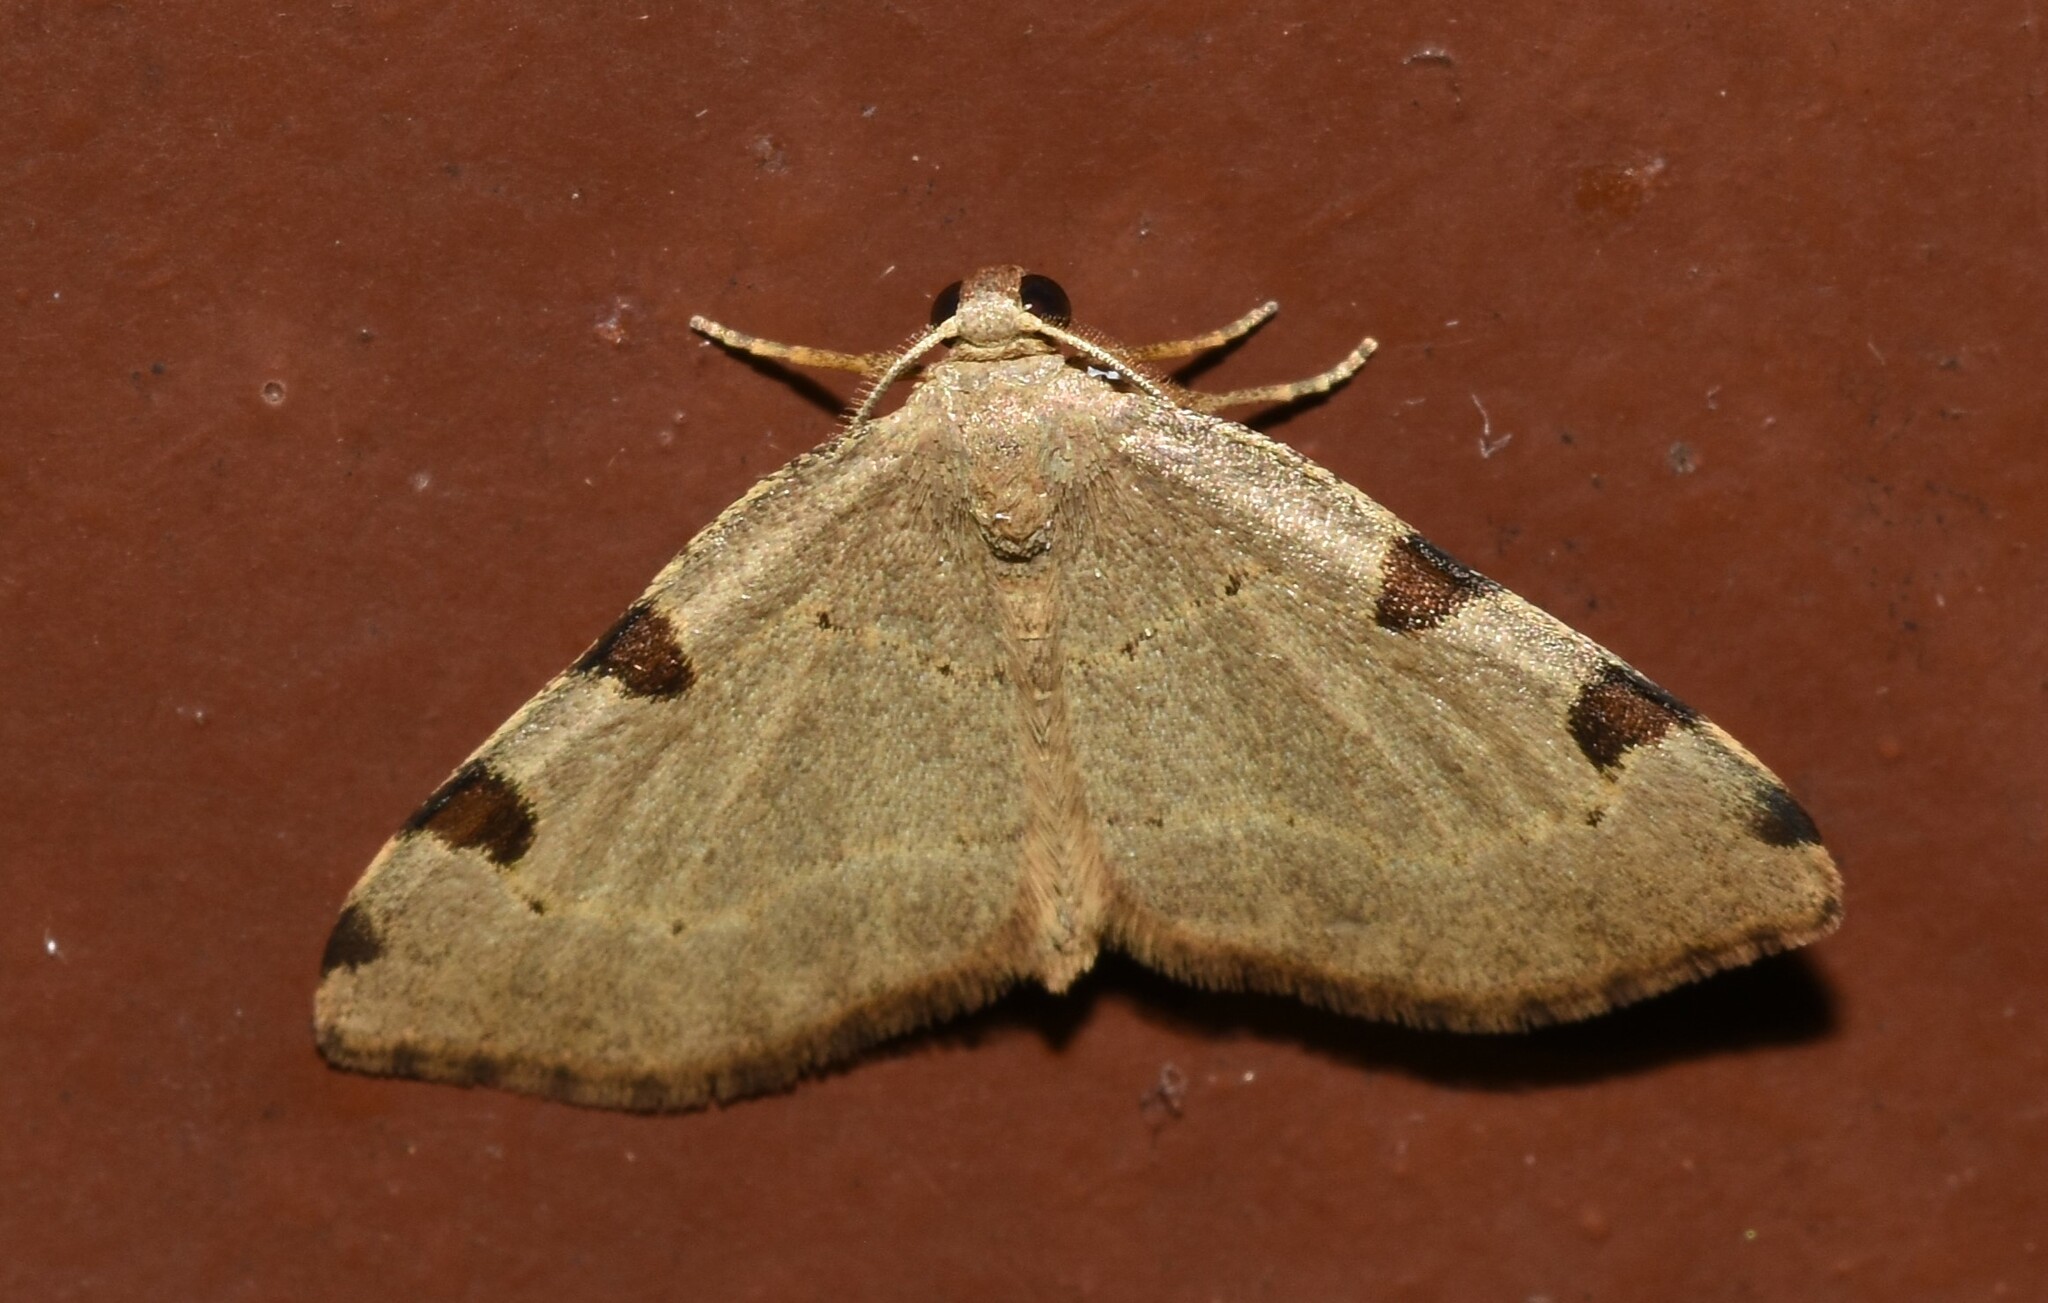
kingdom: Animalia
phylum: Arthropoda
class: Insecta
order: Lepidoptera
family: Geometridae
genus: Heterophleps
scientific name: Heterophleps triguttaria
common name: Three-spotted fillip
